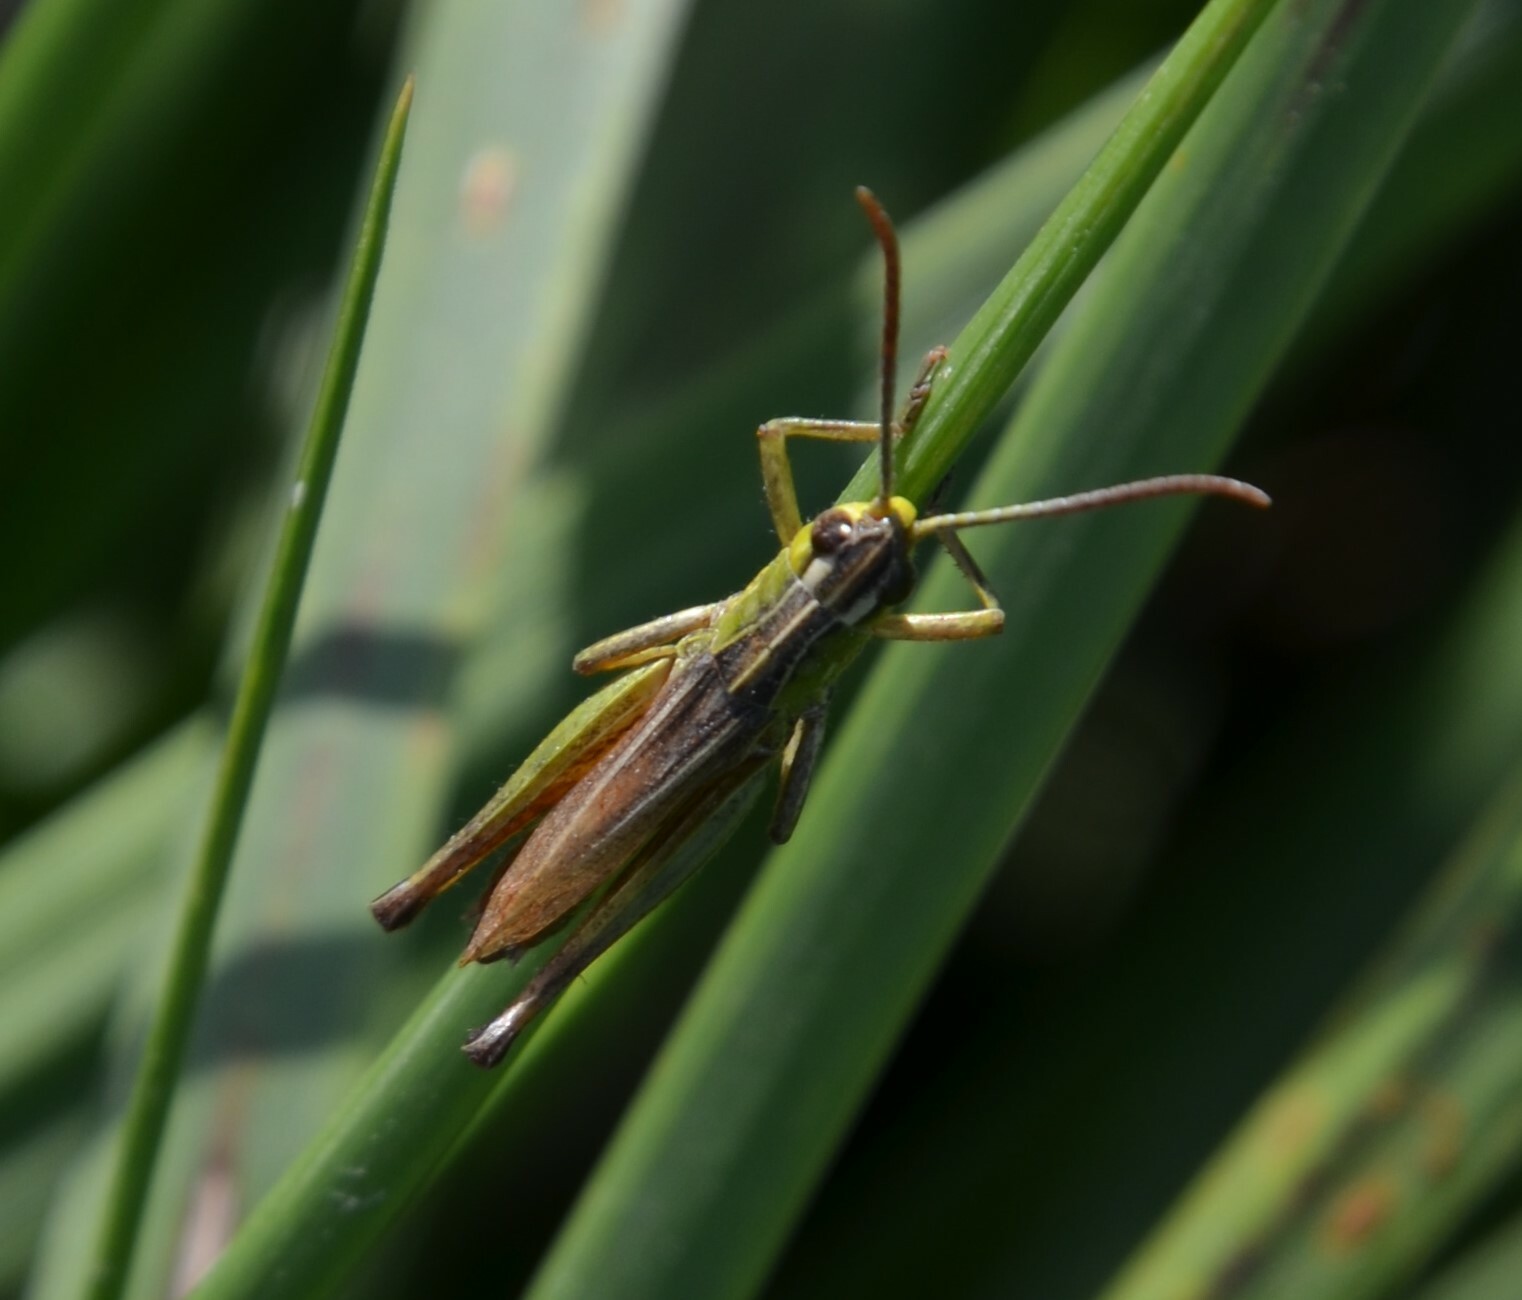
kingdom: Animalia
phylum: Arthropoda
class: Insecta
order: Orthoptera
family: Acrididae
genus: Pseudochorthippus
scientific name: Pseudochorthippus parallelus
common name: Meadow grasshopper
